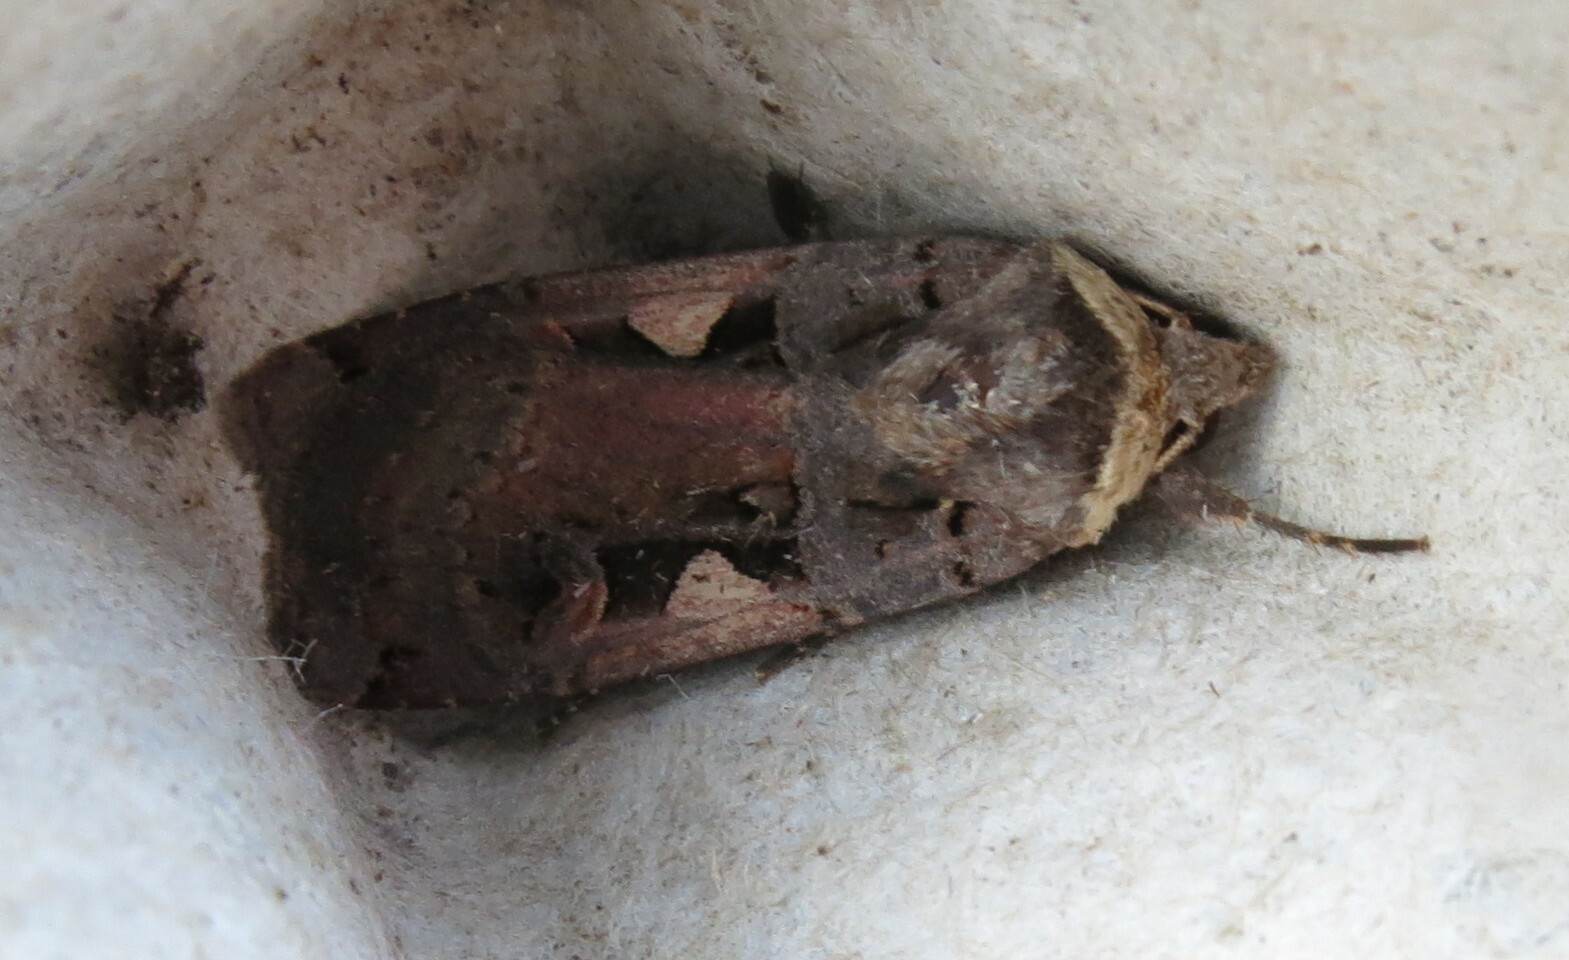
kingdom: Animalia
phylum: Arthropoda
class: Insecta
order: Lepidoptera
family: Noctuidae
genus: Xestia
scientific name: Xestia c-nigrum
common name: Setaceous hebrew character
